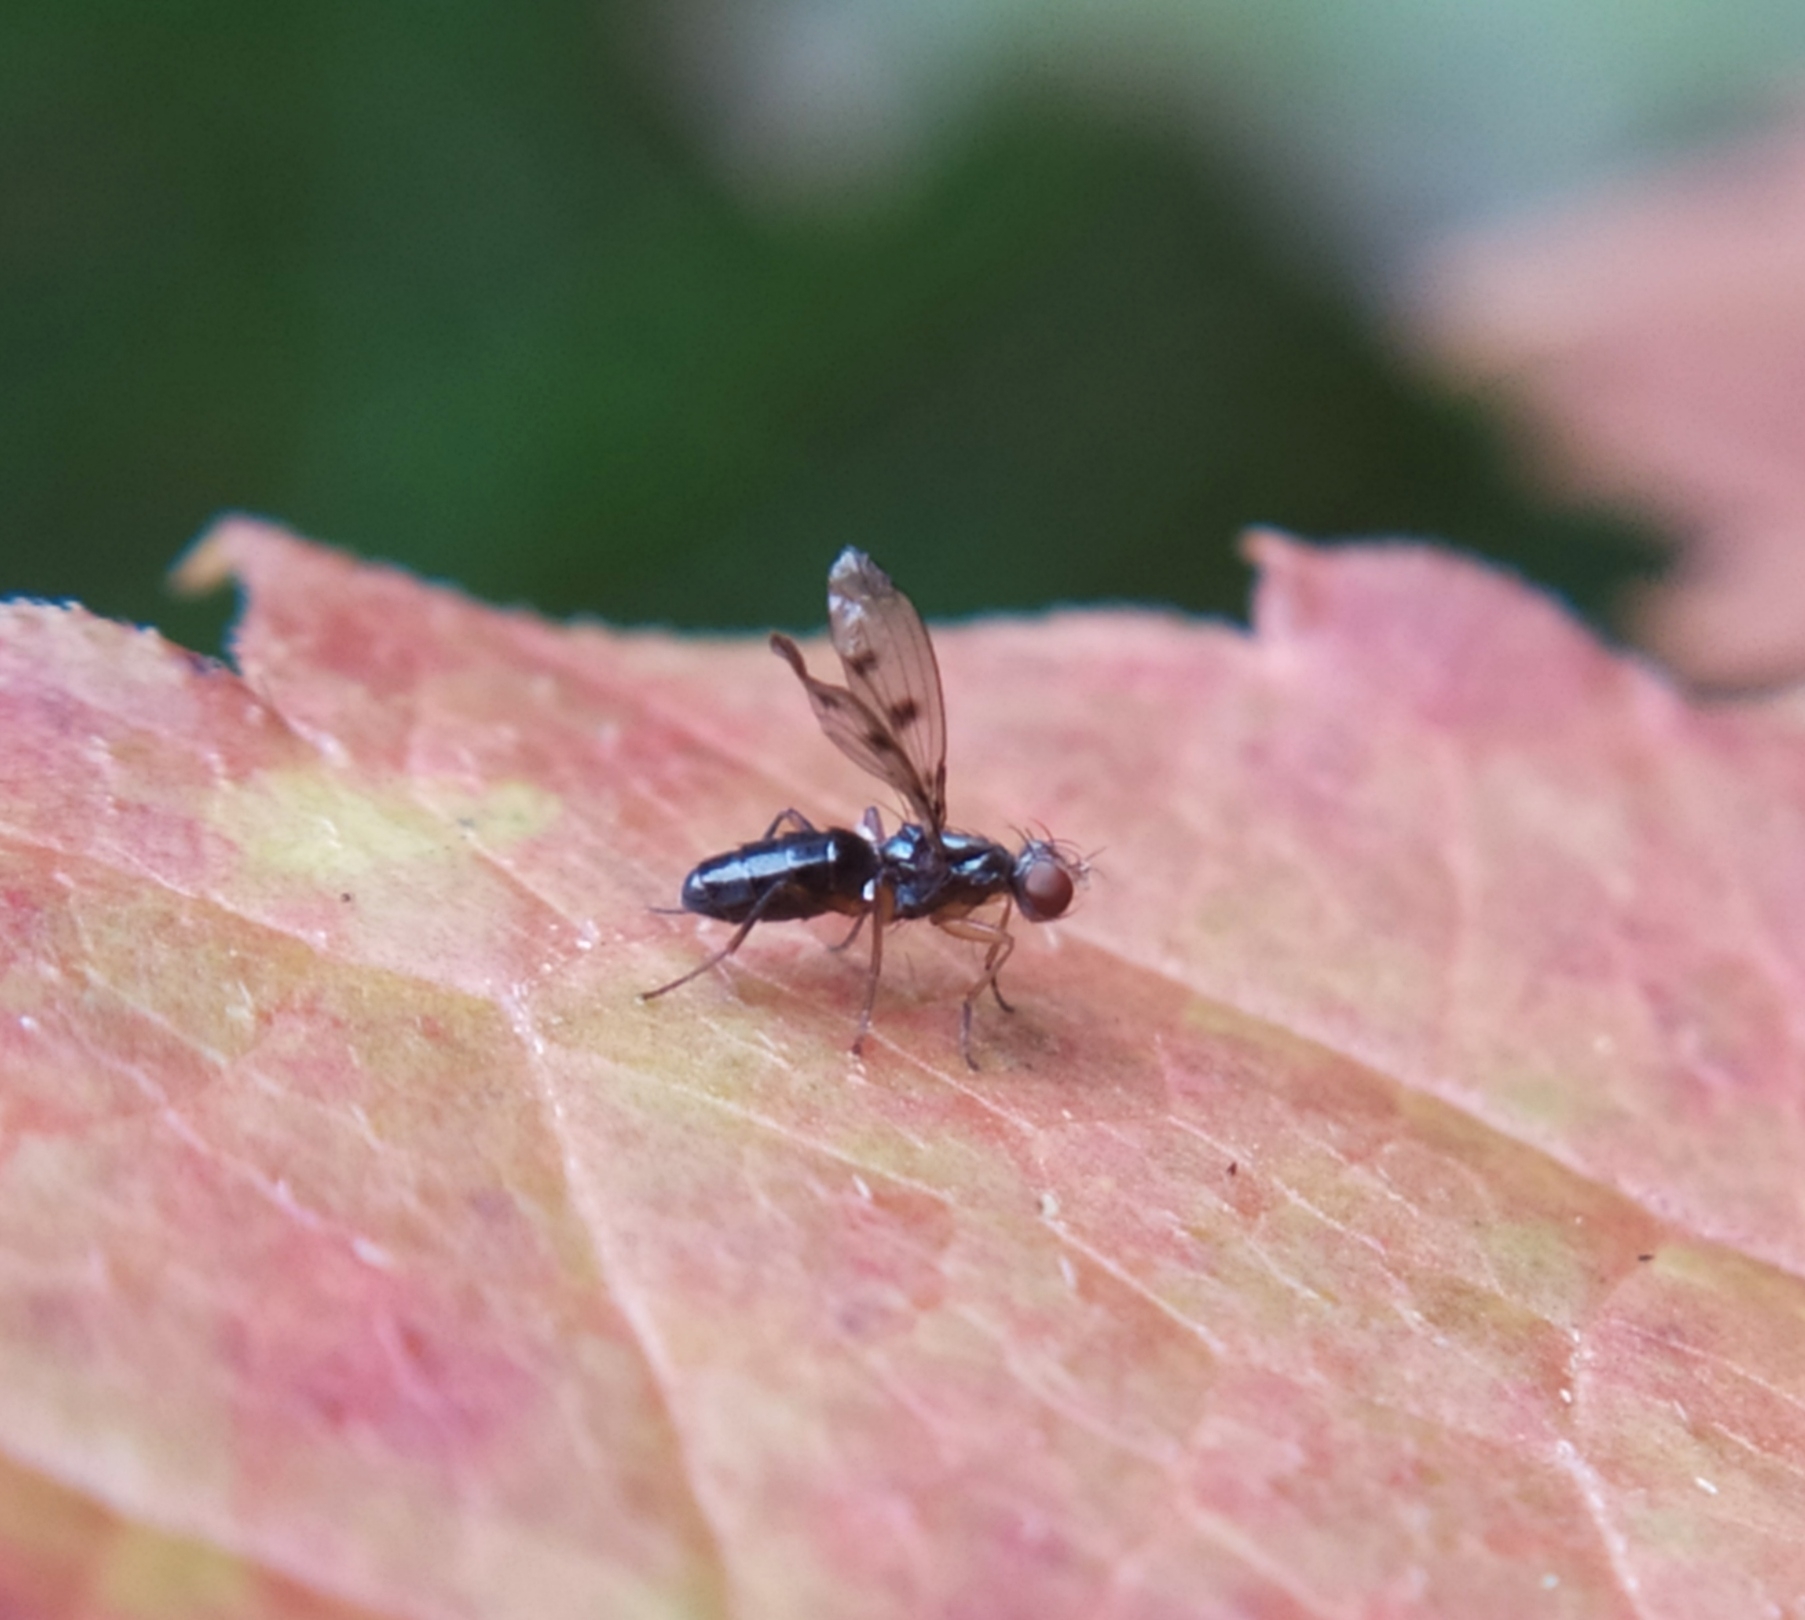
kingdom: Animalia
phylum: Arthropoda
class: Insecta
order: Diptera
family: Opomyzidae
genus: Geomyza
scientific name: Geomyza tripunctata
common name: Cereal fly
